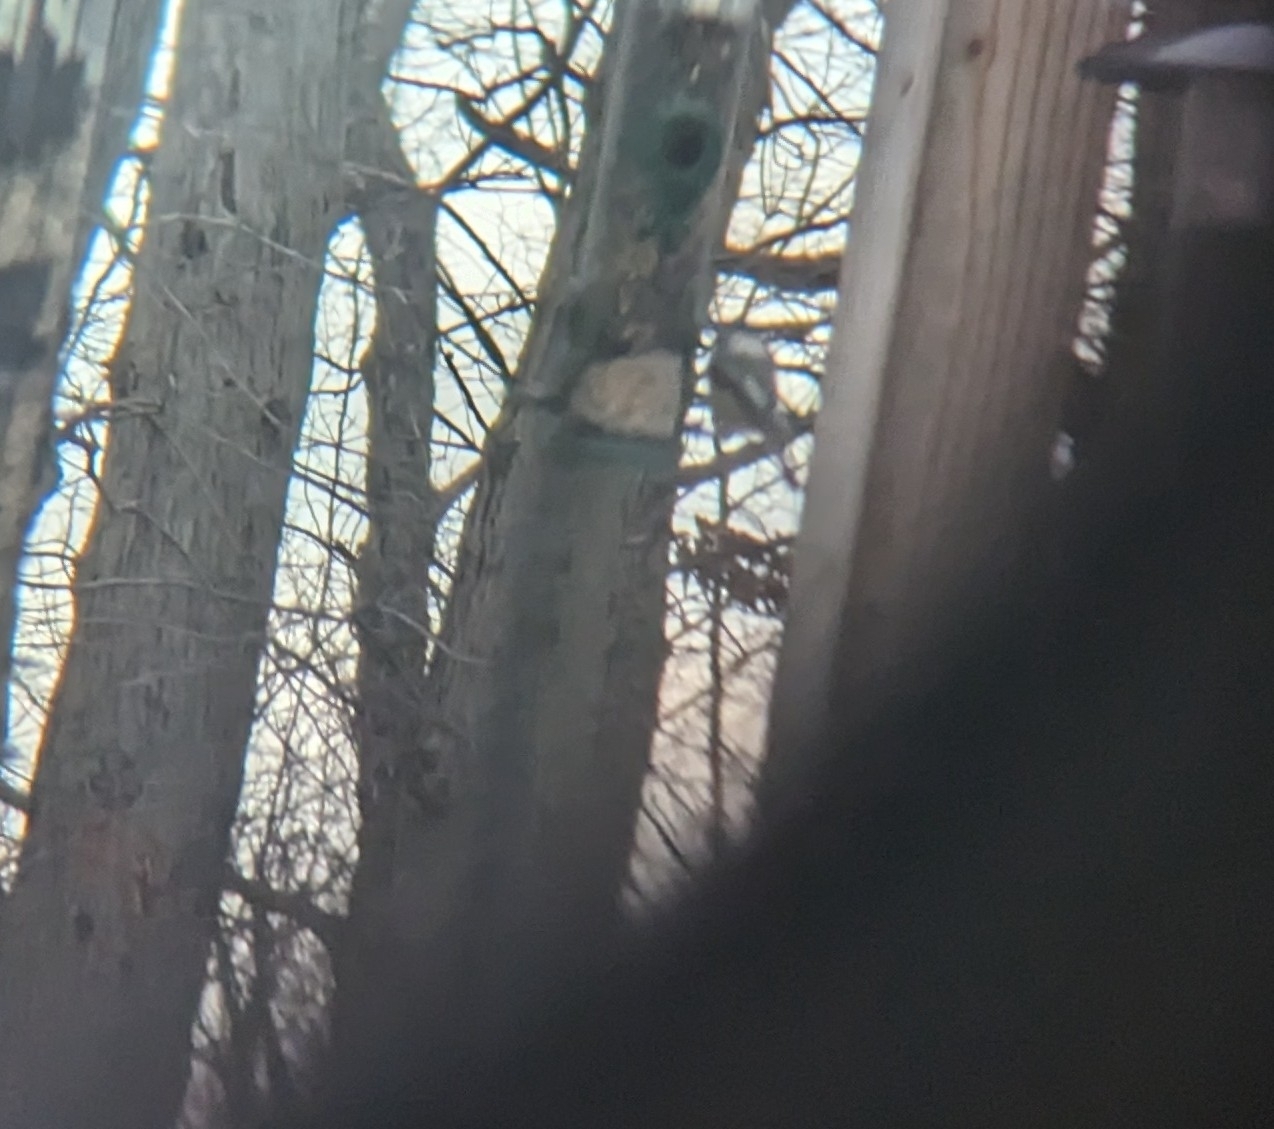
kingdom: Animalia
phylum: Chordata
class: Aves
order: Passeriformes
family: Paridae
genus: Poecile
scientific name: Poecile atricapillus
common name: Black-capped chickadee
